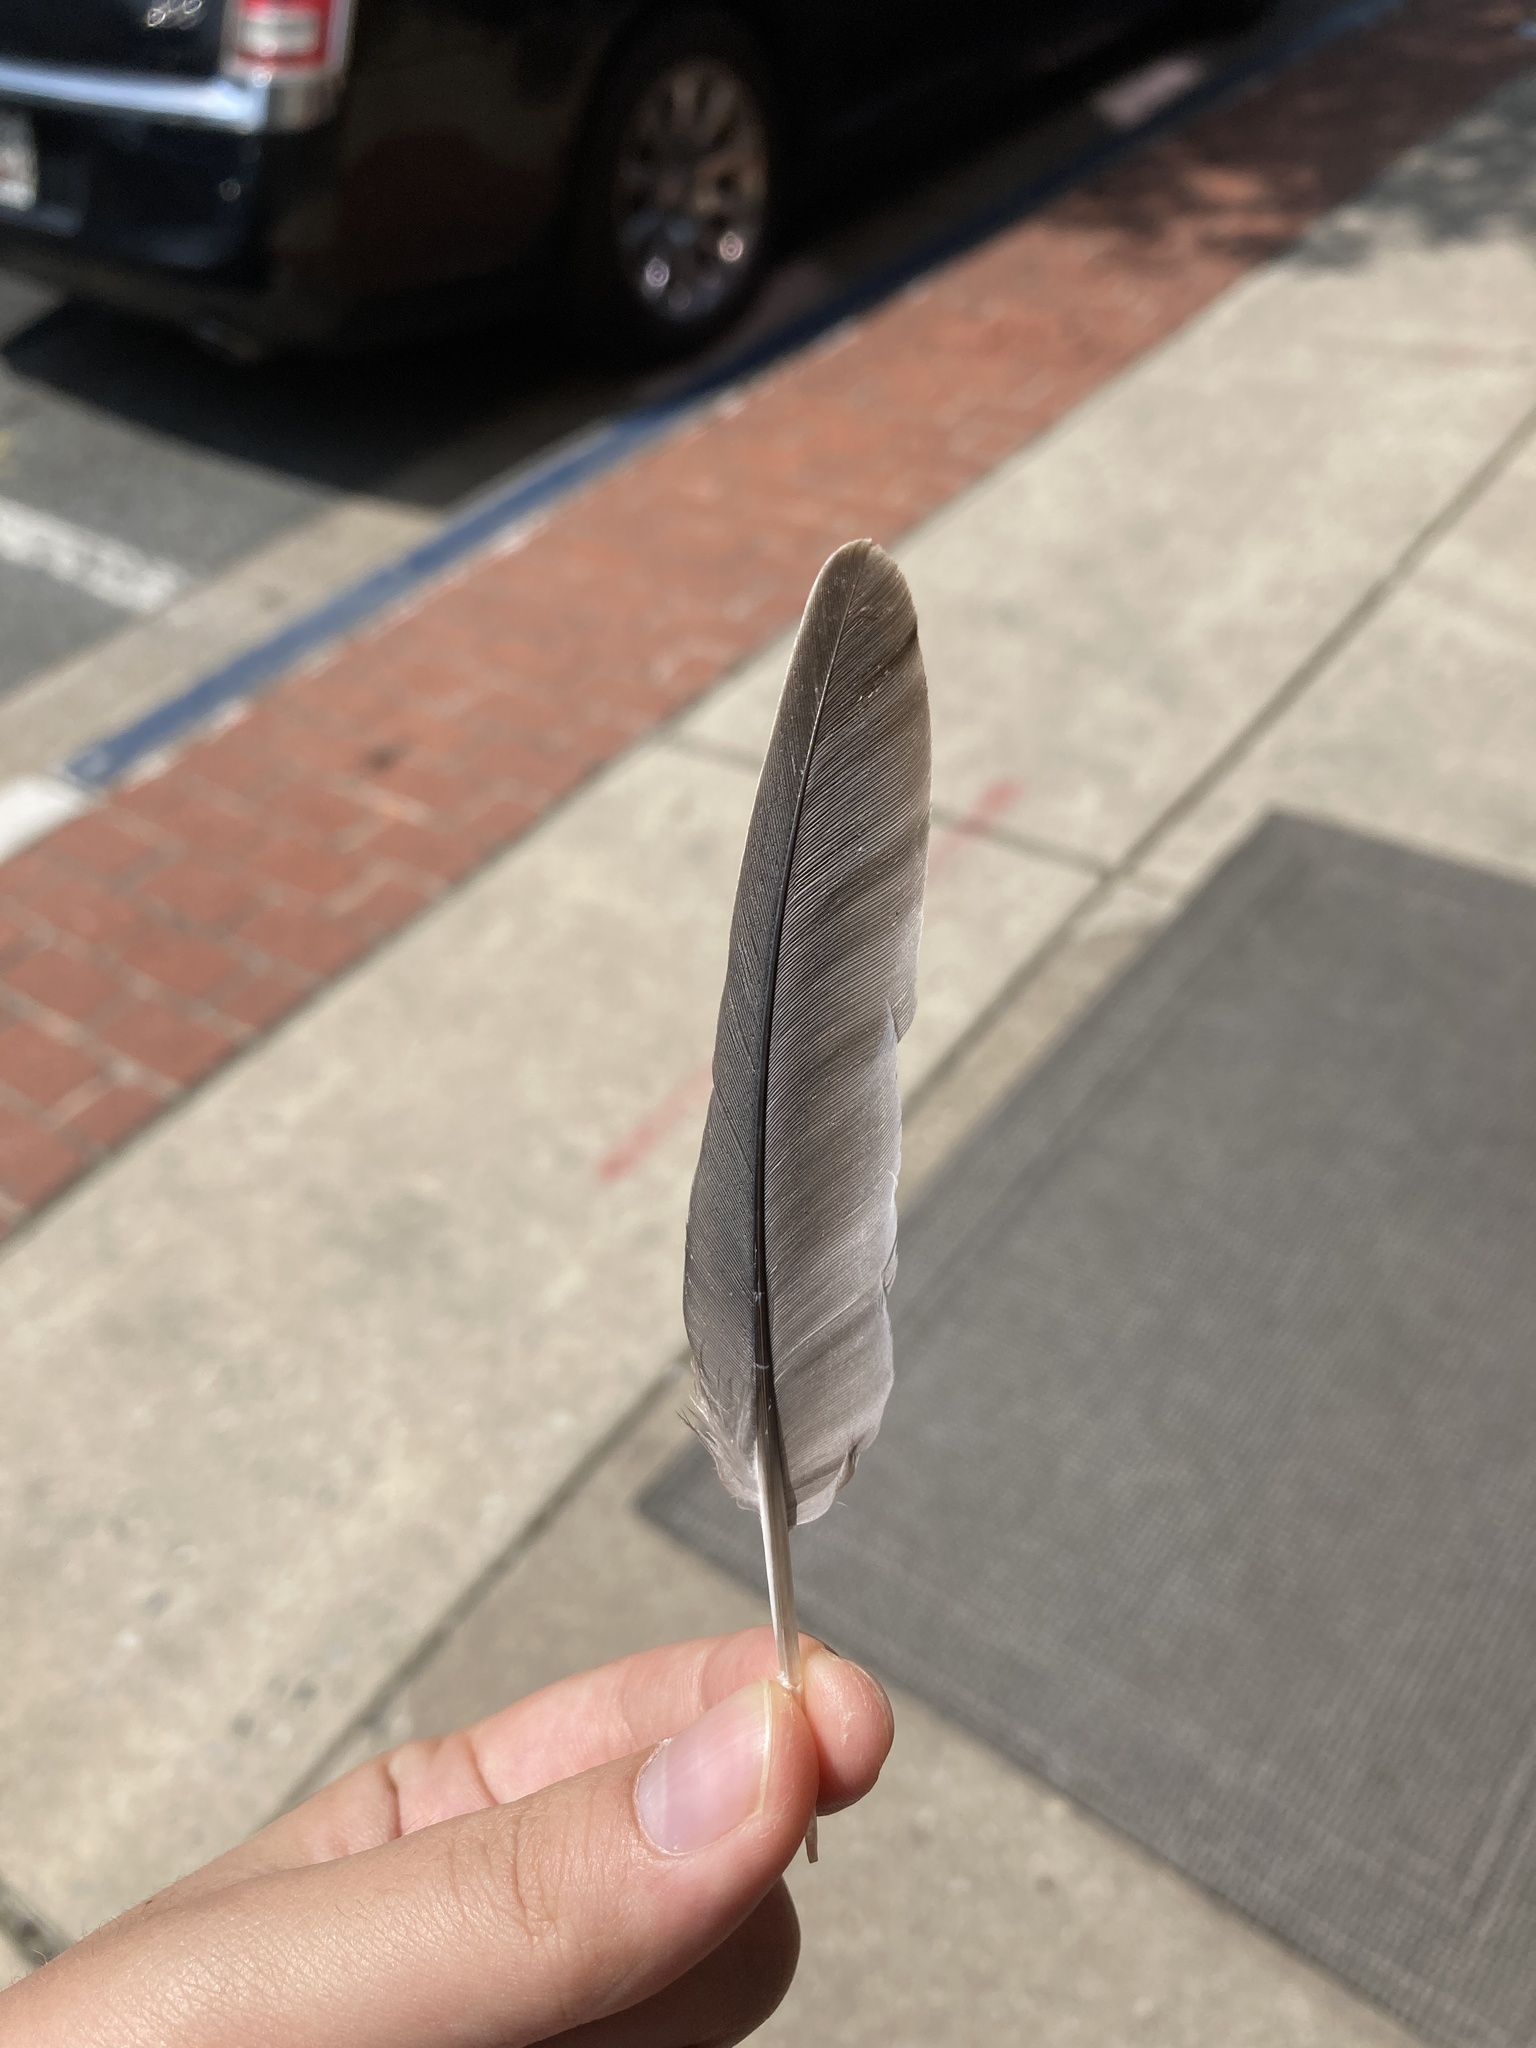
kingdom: Animalia
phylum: Chordata
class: Aves
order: Columbiformes
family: Columbidae
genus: Zenaida
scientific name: Zenaida macroura
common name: Mourning dove
